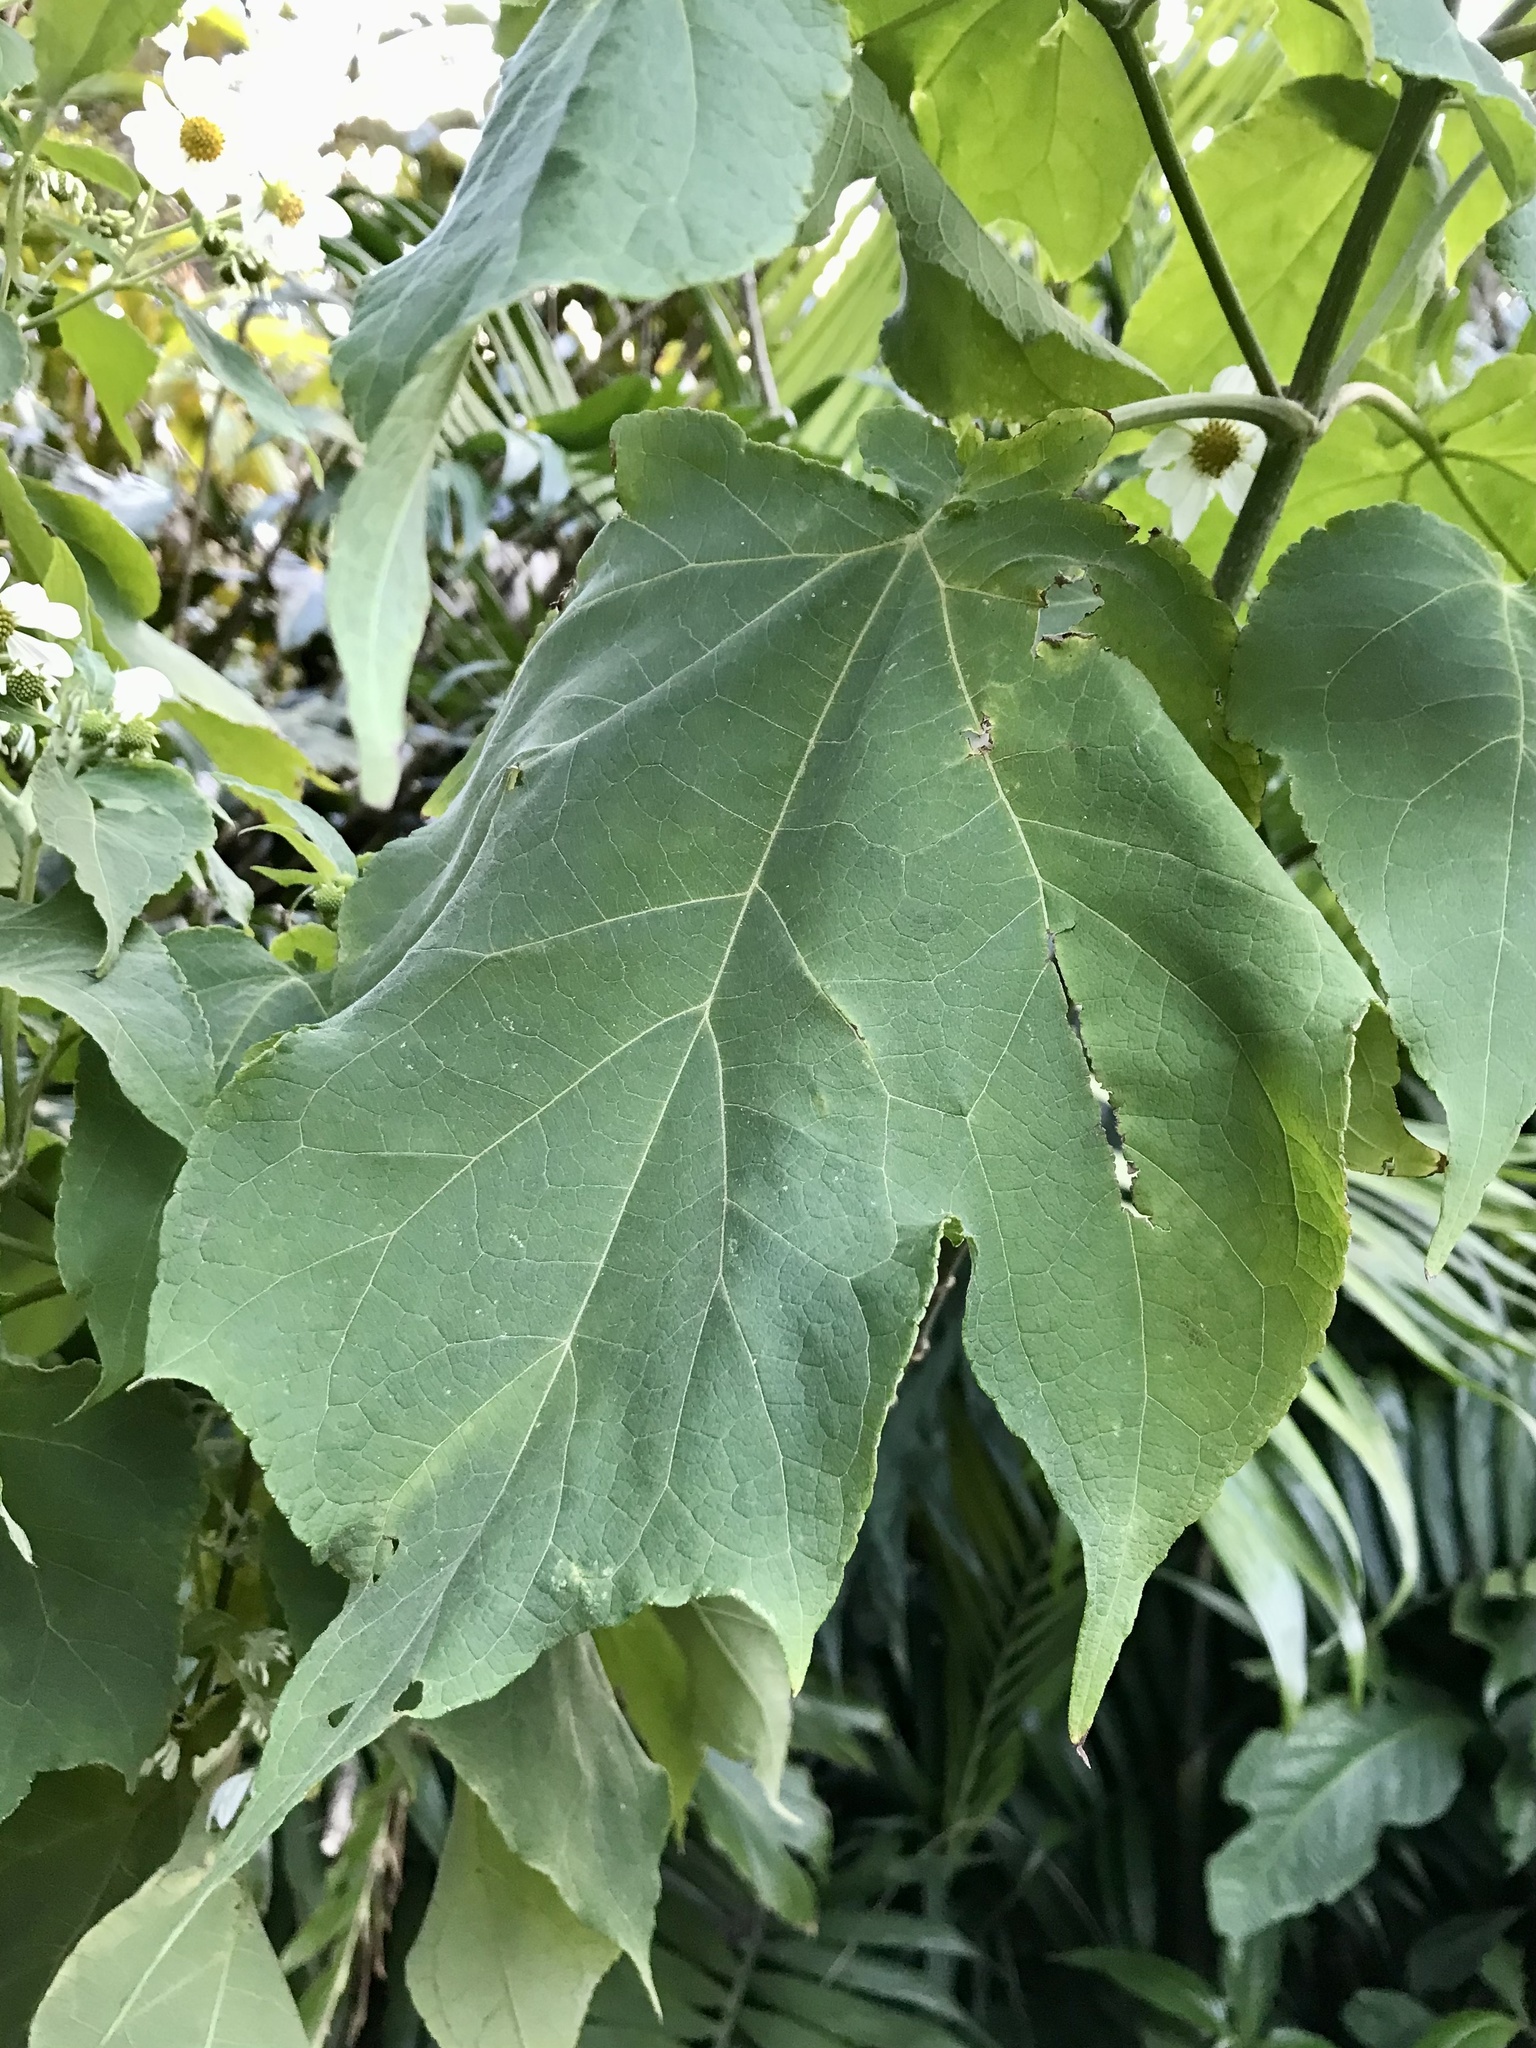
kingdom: Plantae
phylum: Tracheophyta
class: Magnoliopsida
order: Asterales
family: Asteraceae
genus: Montanoa
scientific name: Montanoa hibiscifolia
